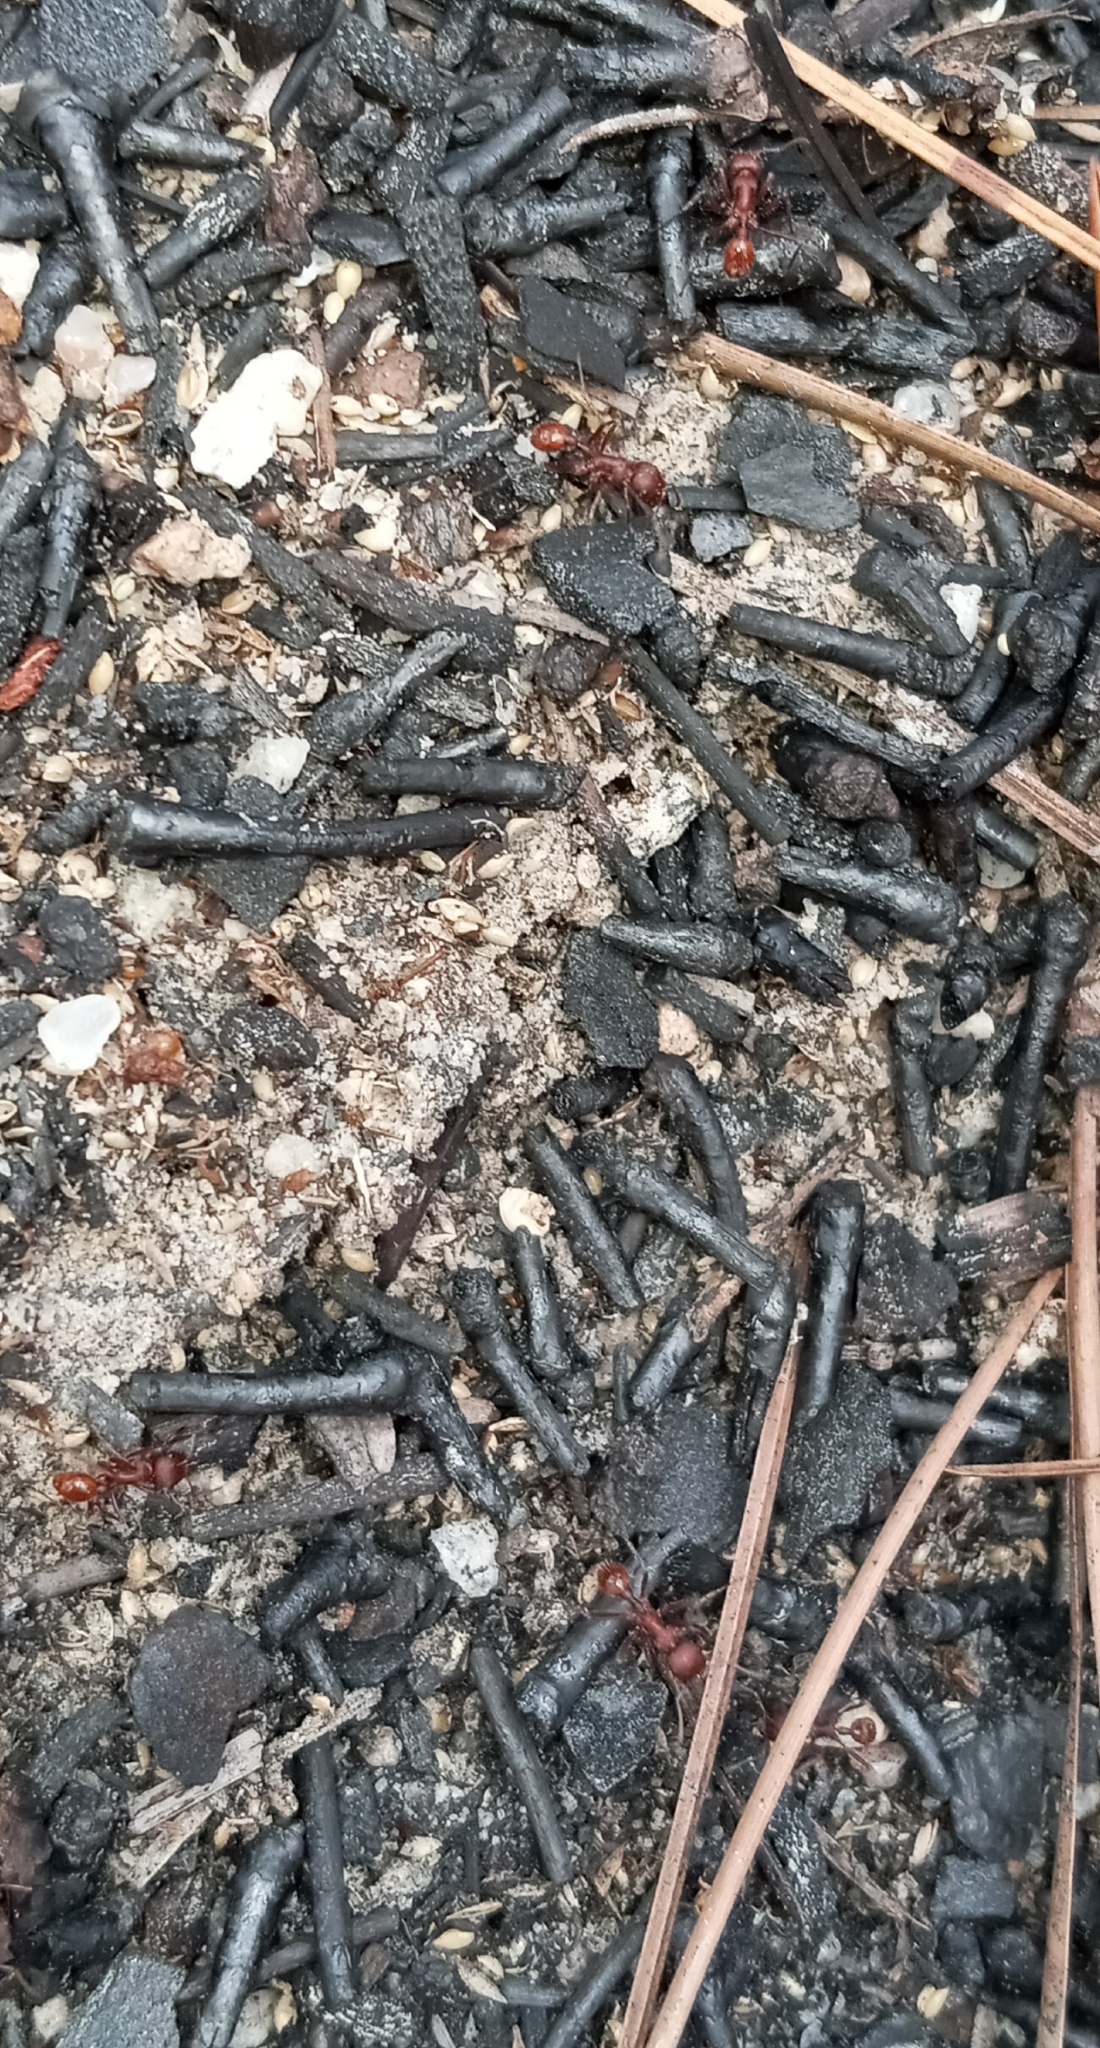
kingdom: Animalia
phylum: Arthropoda
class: Insecta
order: Hymenoptera
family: Formicidae
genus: Pogonomyrmex
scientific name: Pogonomyrmex badius
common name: Florida harvester ant
